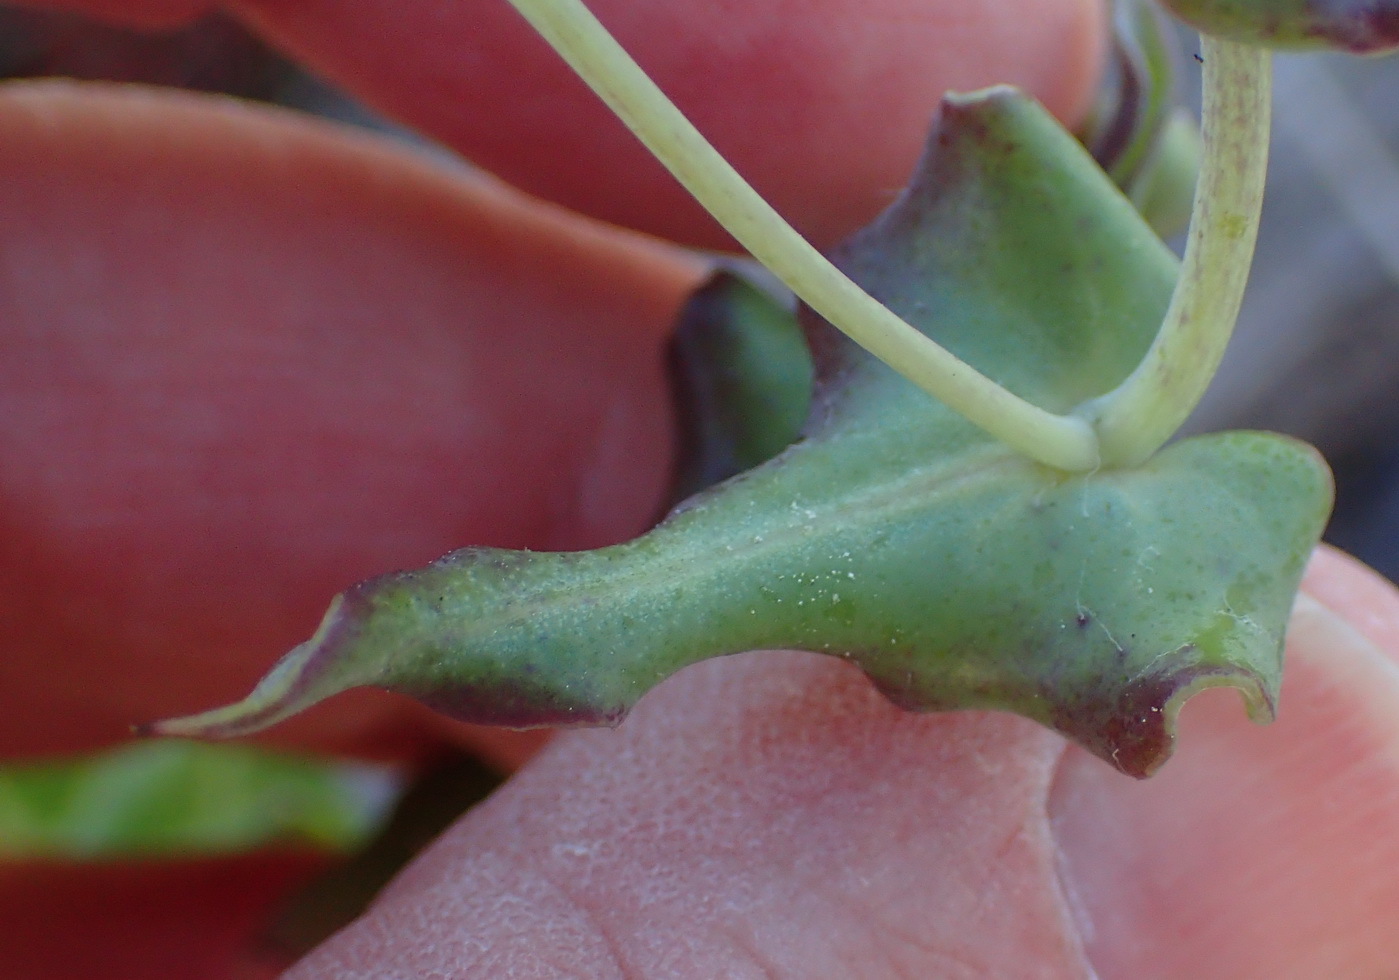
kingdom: Plantae
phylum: Tracheophyta
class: Magnoliopsida
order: Asterales
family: Asteraceae
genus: Othonna
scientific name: Othonna undulosa
